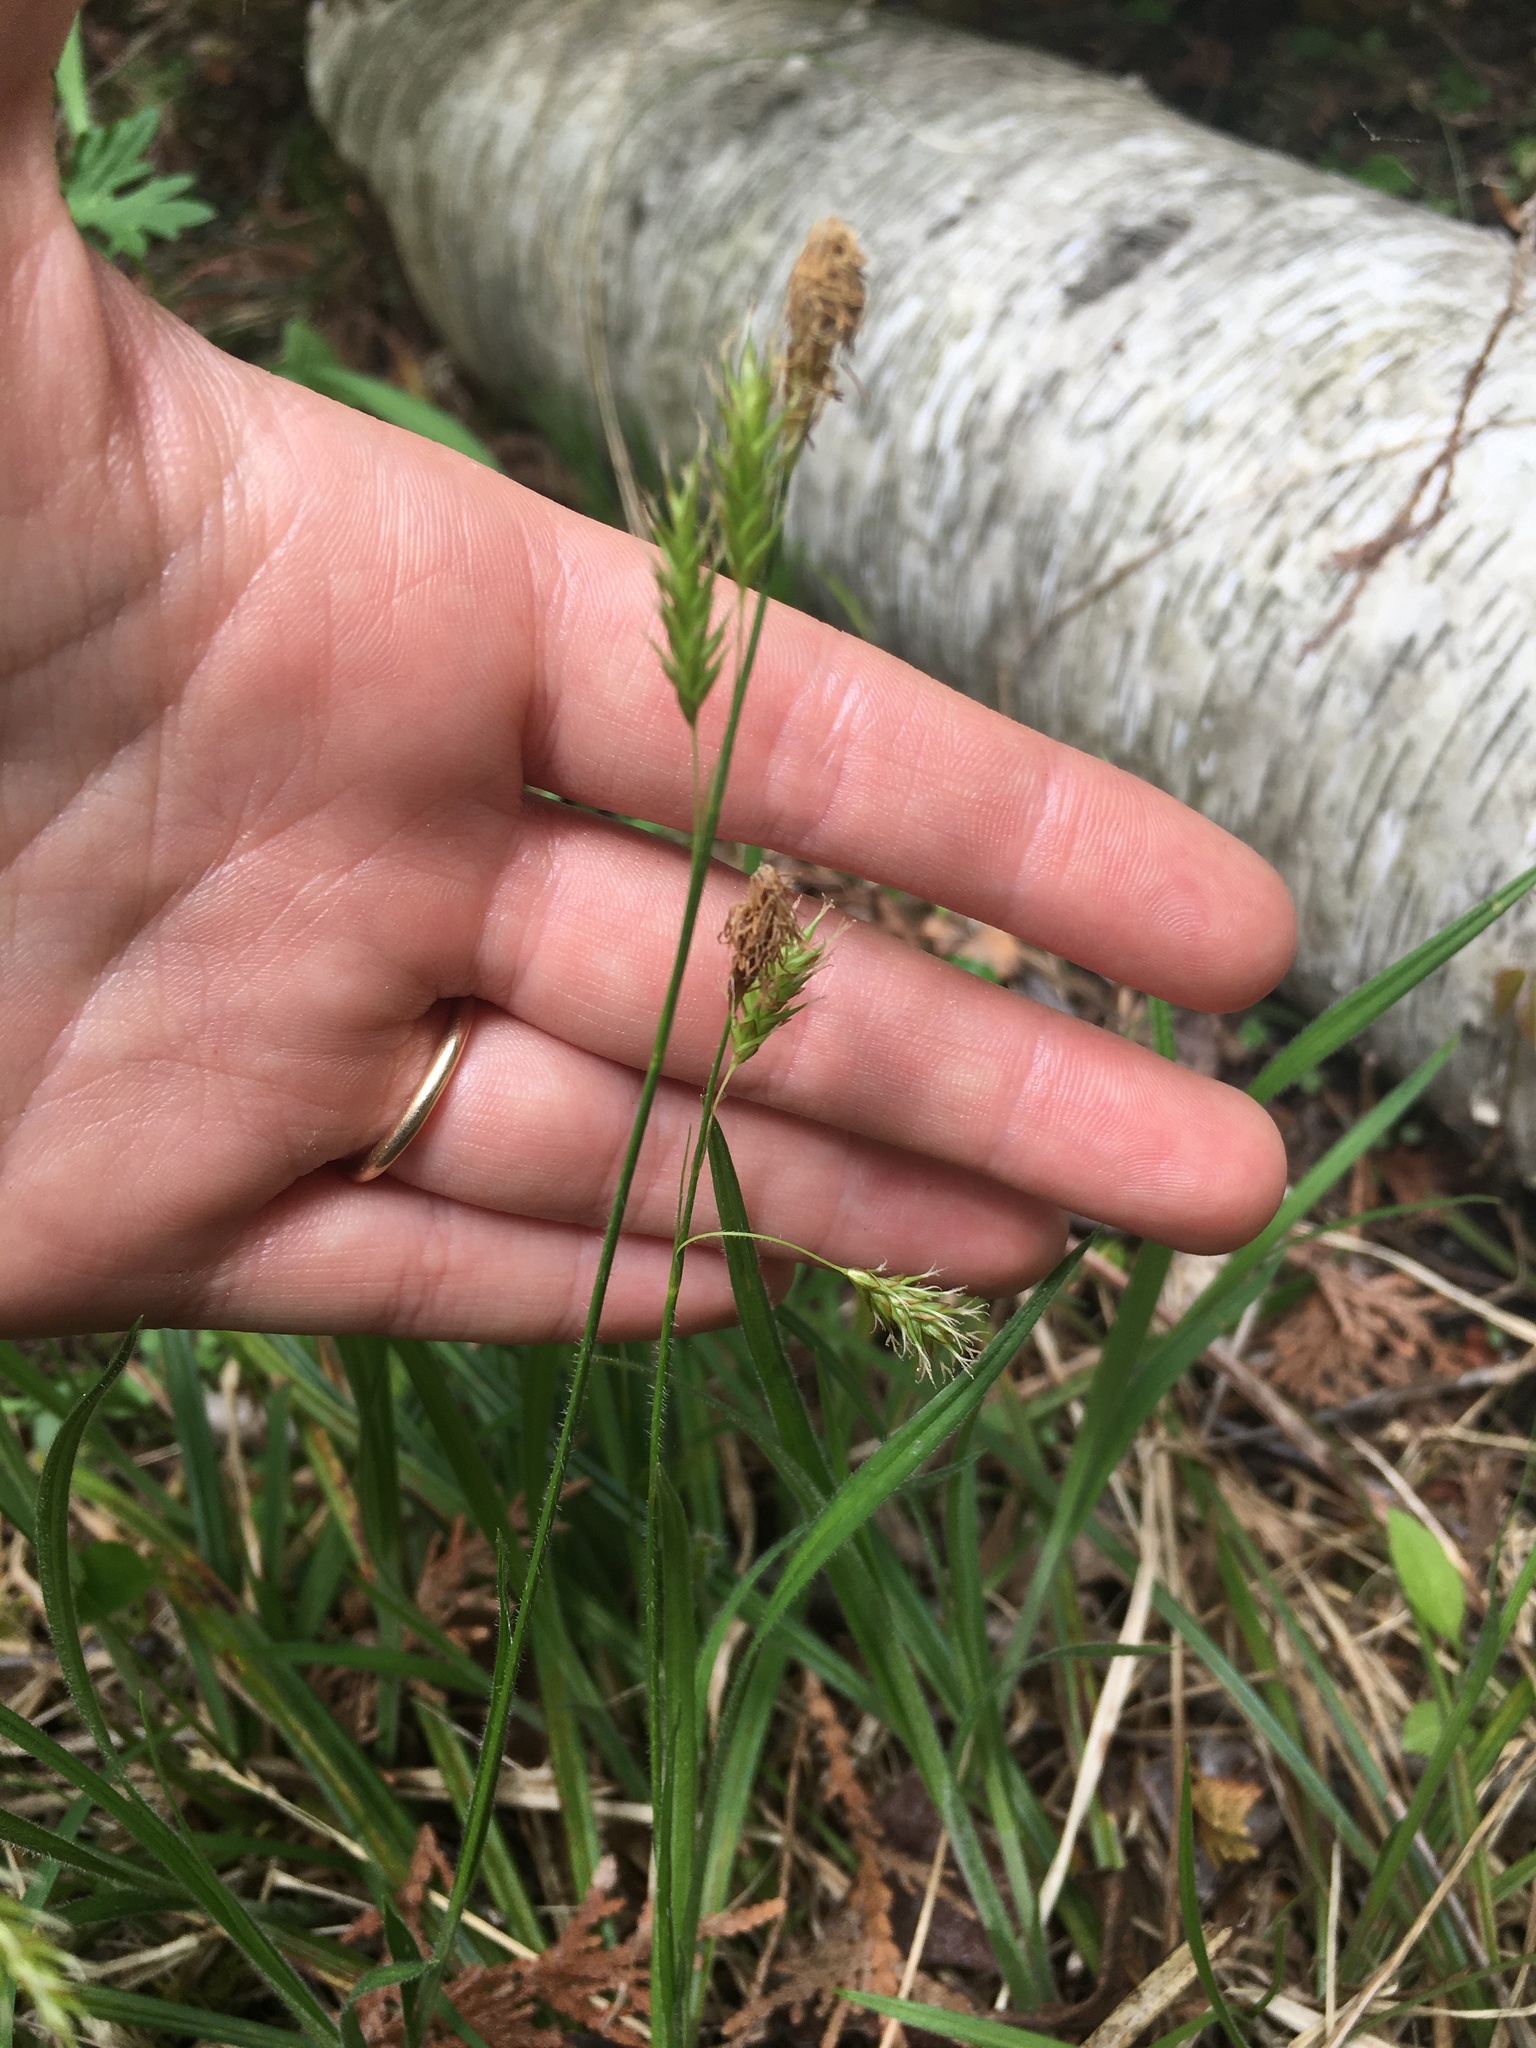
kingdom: Plantae
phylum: Tracheophyta
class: Liliopsida
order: Poales
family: Cyperaceae
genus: Carex
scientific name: Carex castanea
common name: Chestnut sedge
